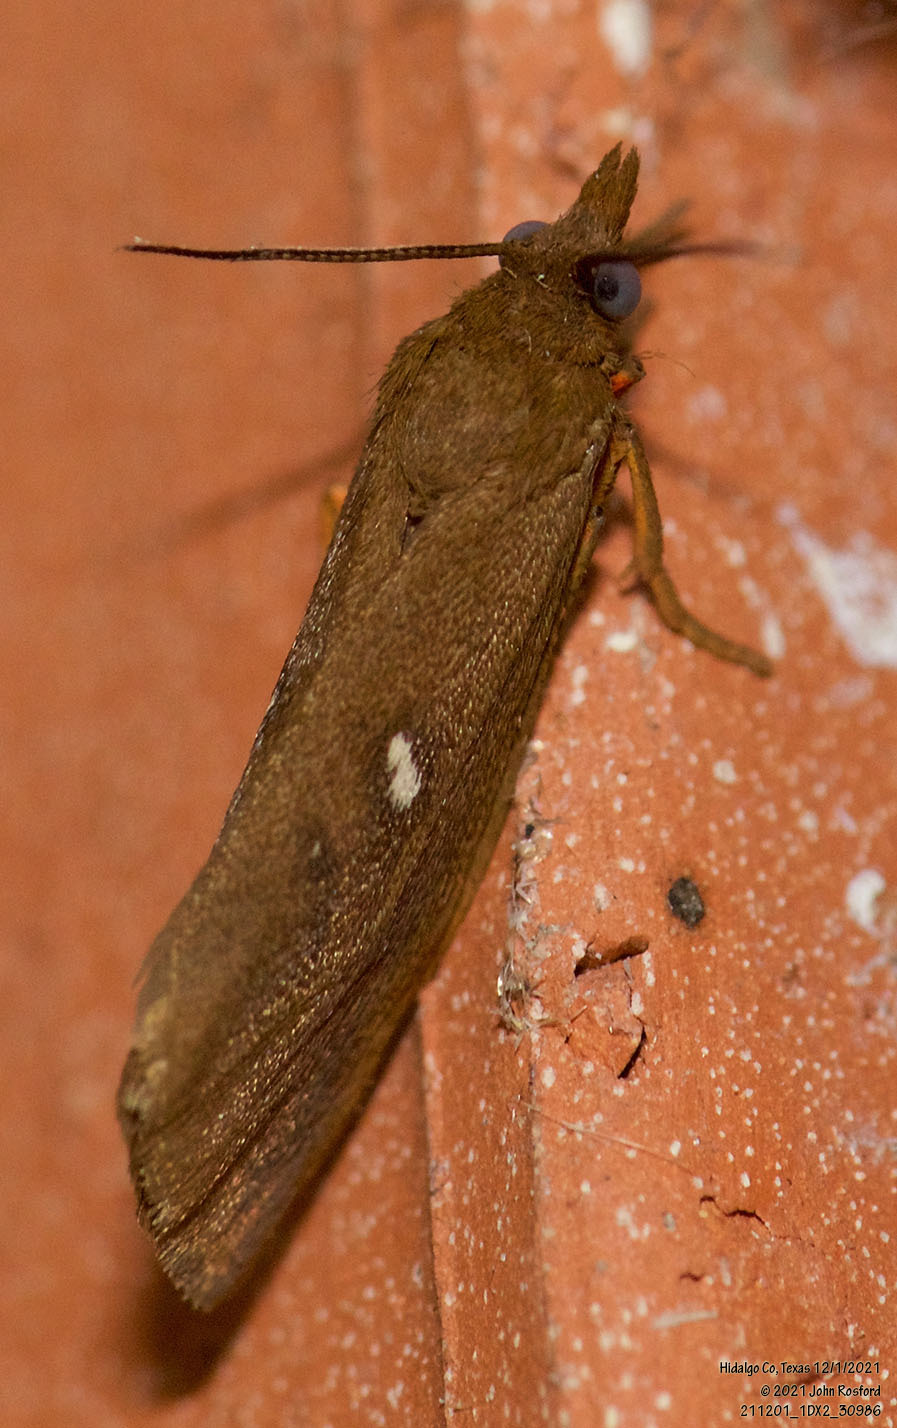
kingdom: Animalia
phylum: Arthropoda
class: Insecta
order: Lepidoptera
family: Erebidae
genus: Virbia
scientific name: Virbia aurantiaca
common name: Orange virbia moth
